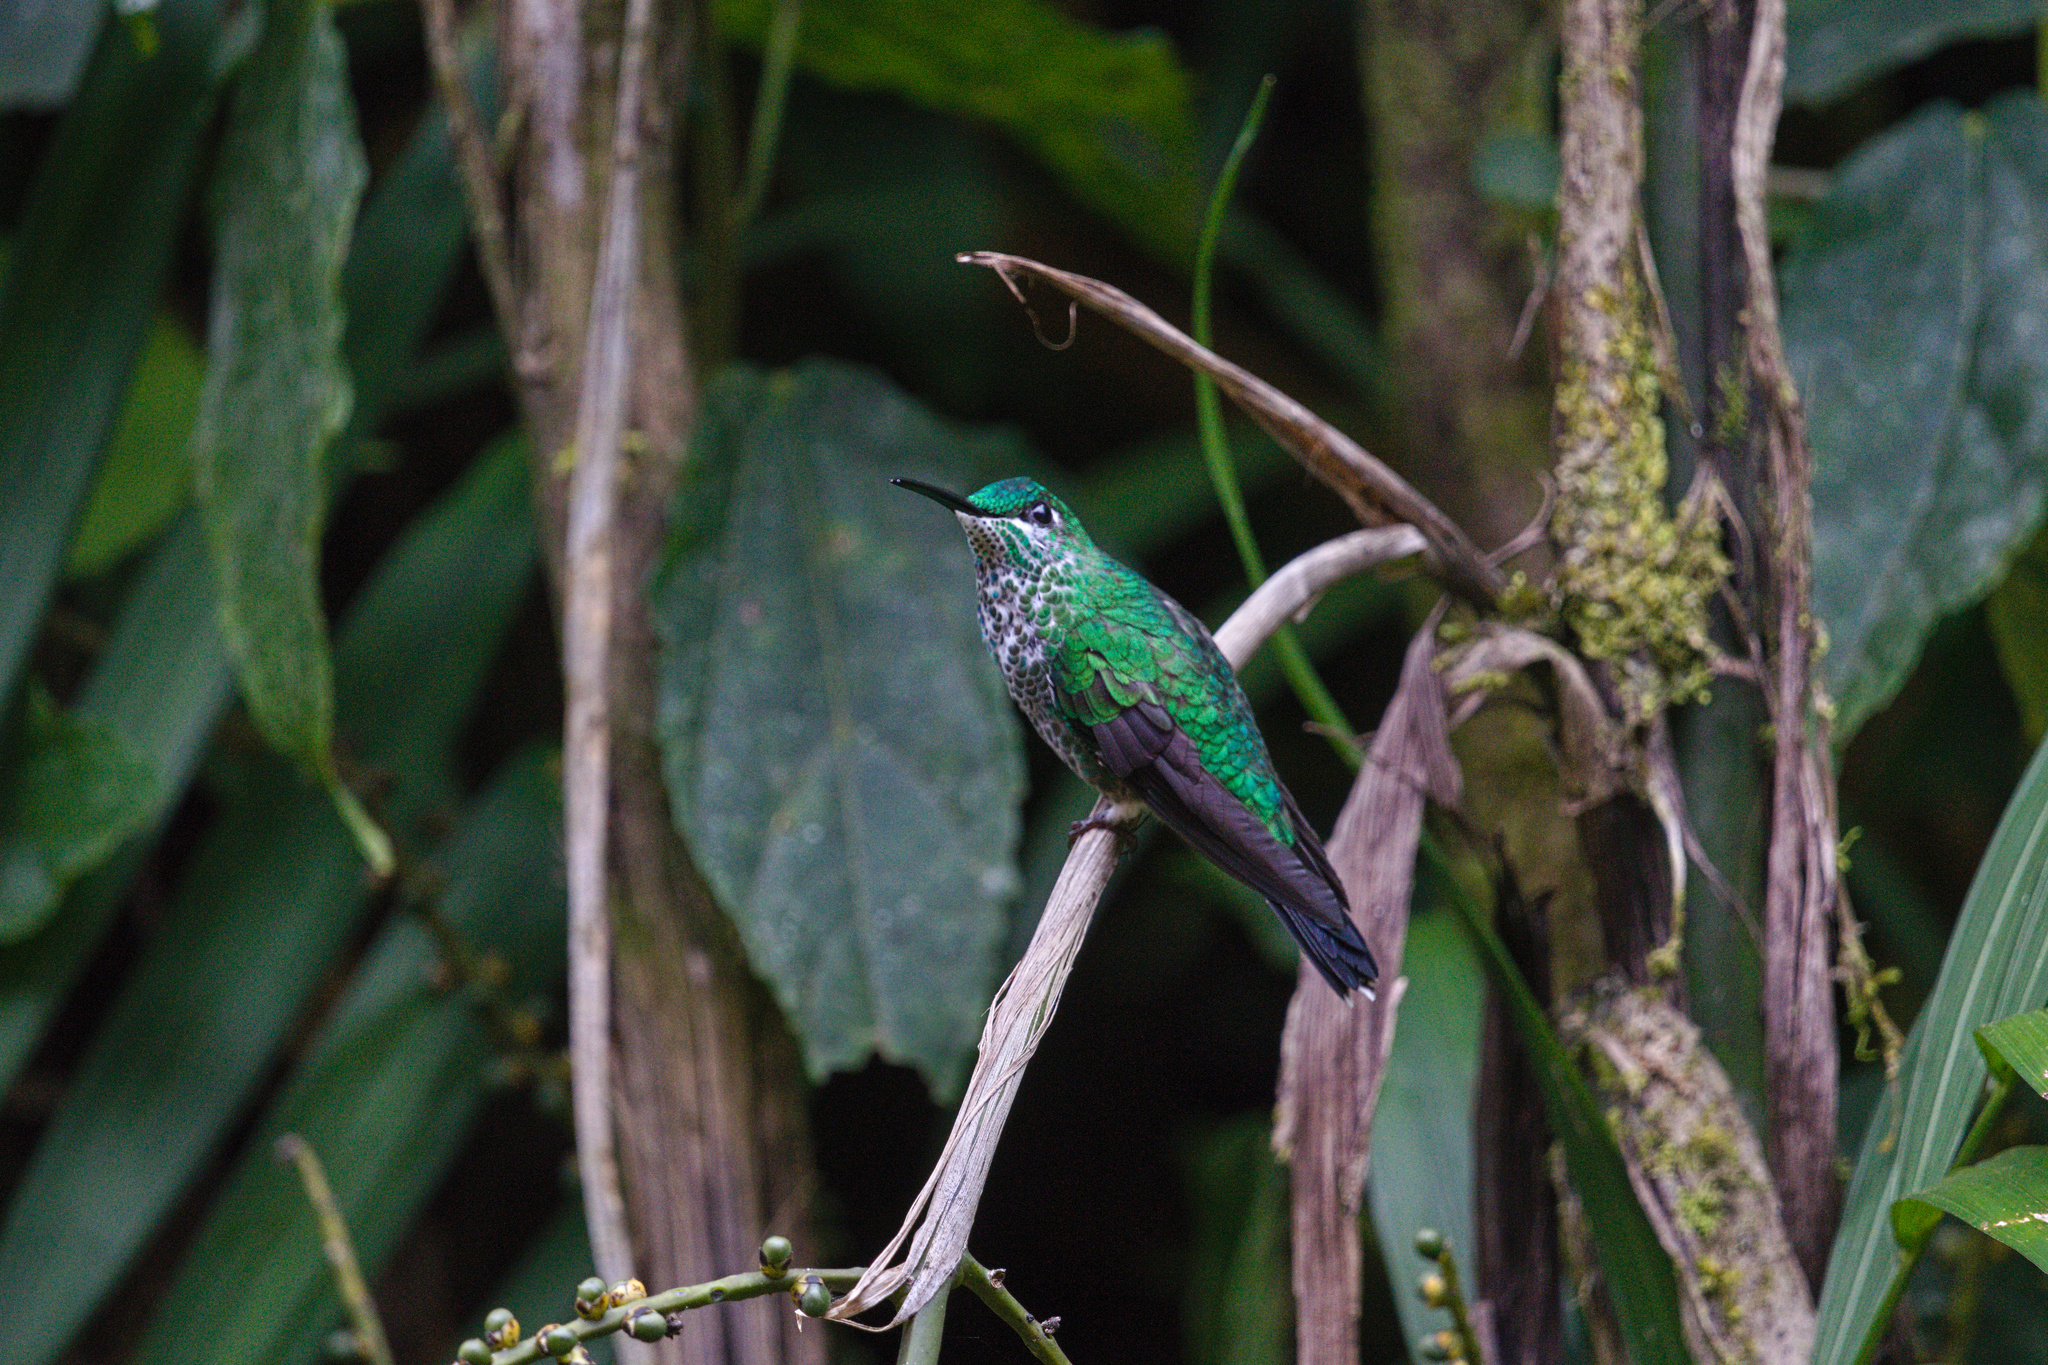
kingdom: Animalia
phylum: Chordata
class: Aves
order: Apodiformes
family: Trochilidae
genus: Heliodoxa
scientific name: Heliodoxa jacula
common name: Green-crowned brilliant
